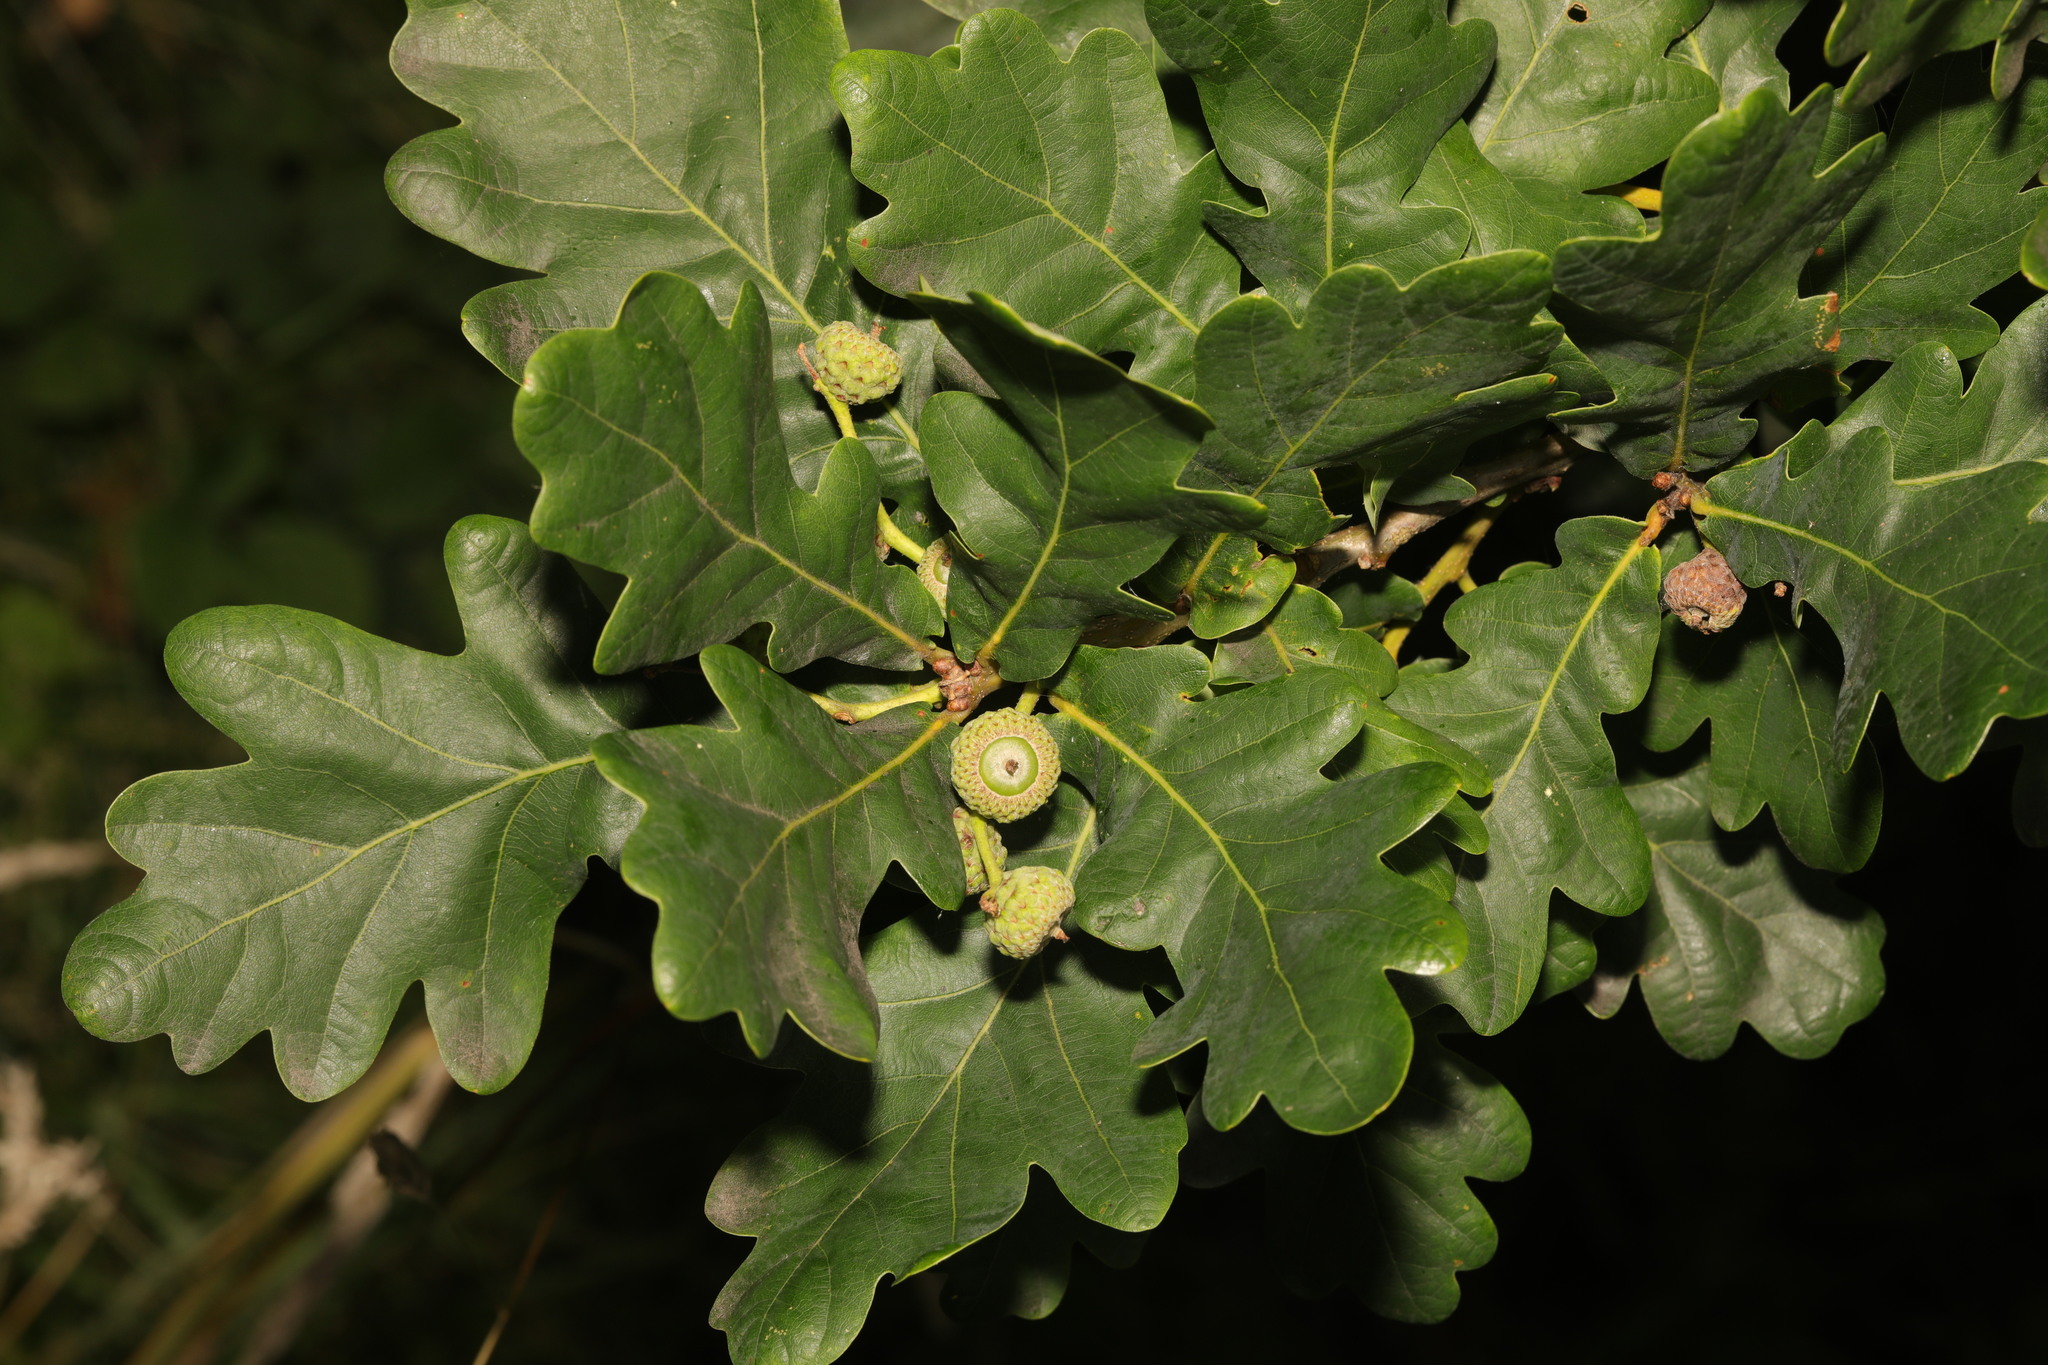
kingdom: Plantae
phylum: Tracheophyta
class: Magnoliopsida
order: Fagales
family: Fagaceae
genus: Quercus
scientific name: Quercus robur
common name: Pedunculate oak
